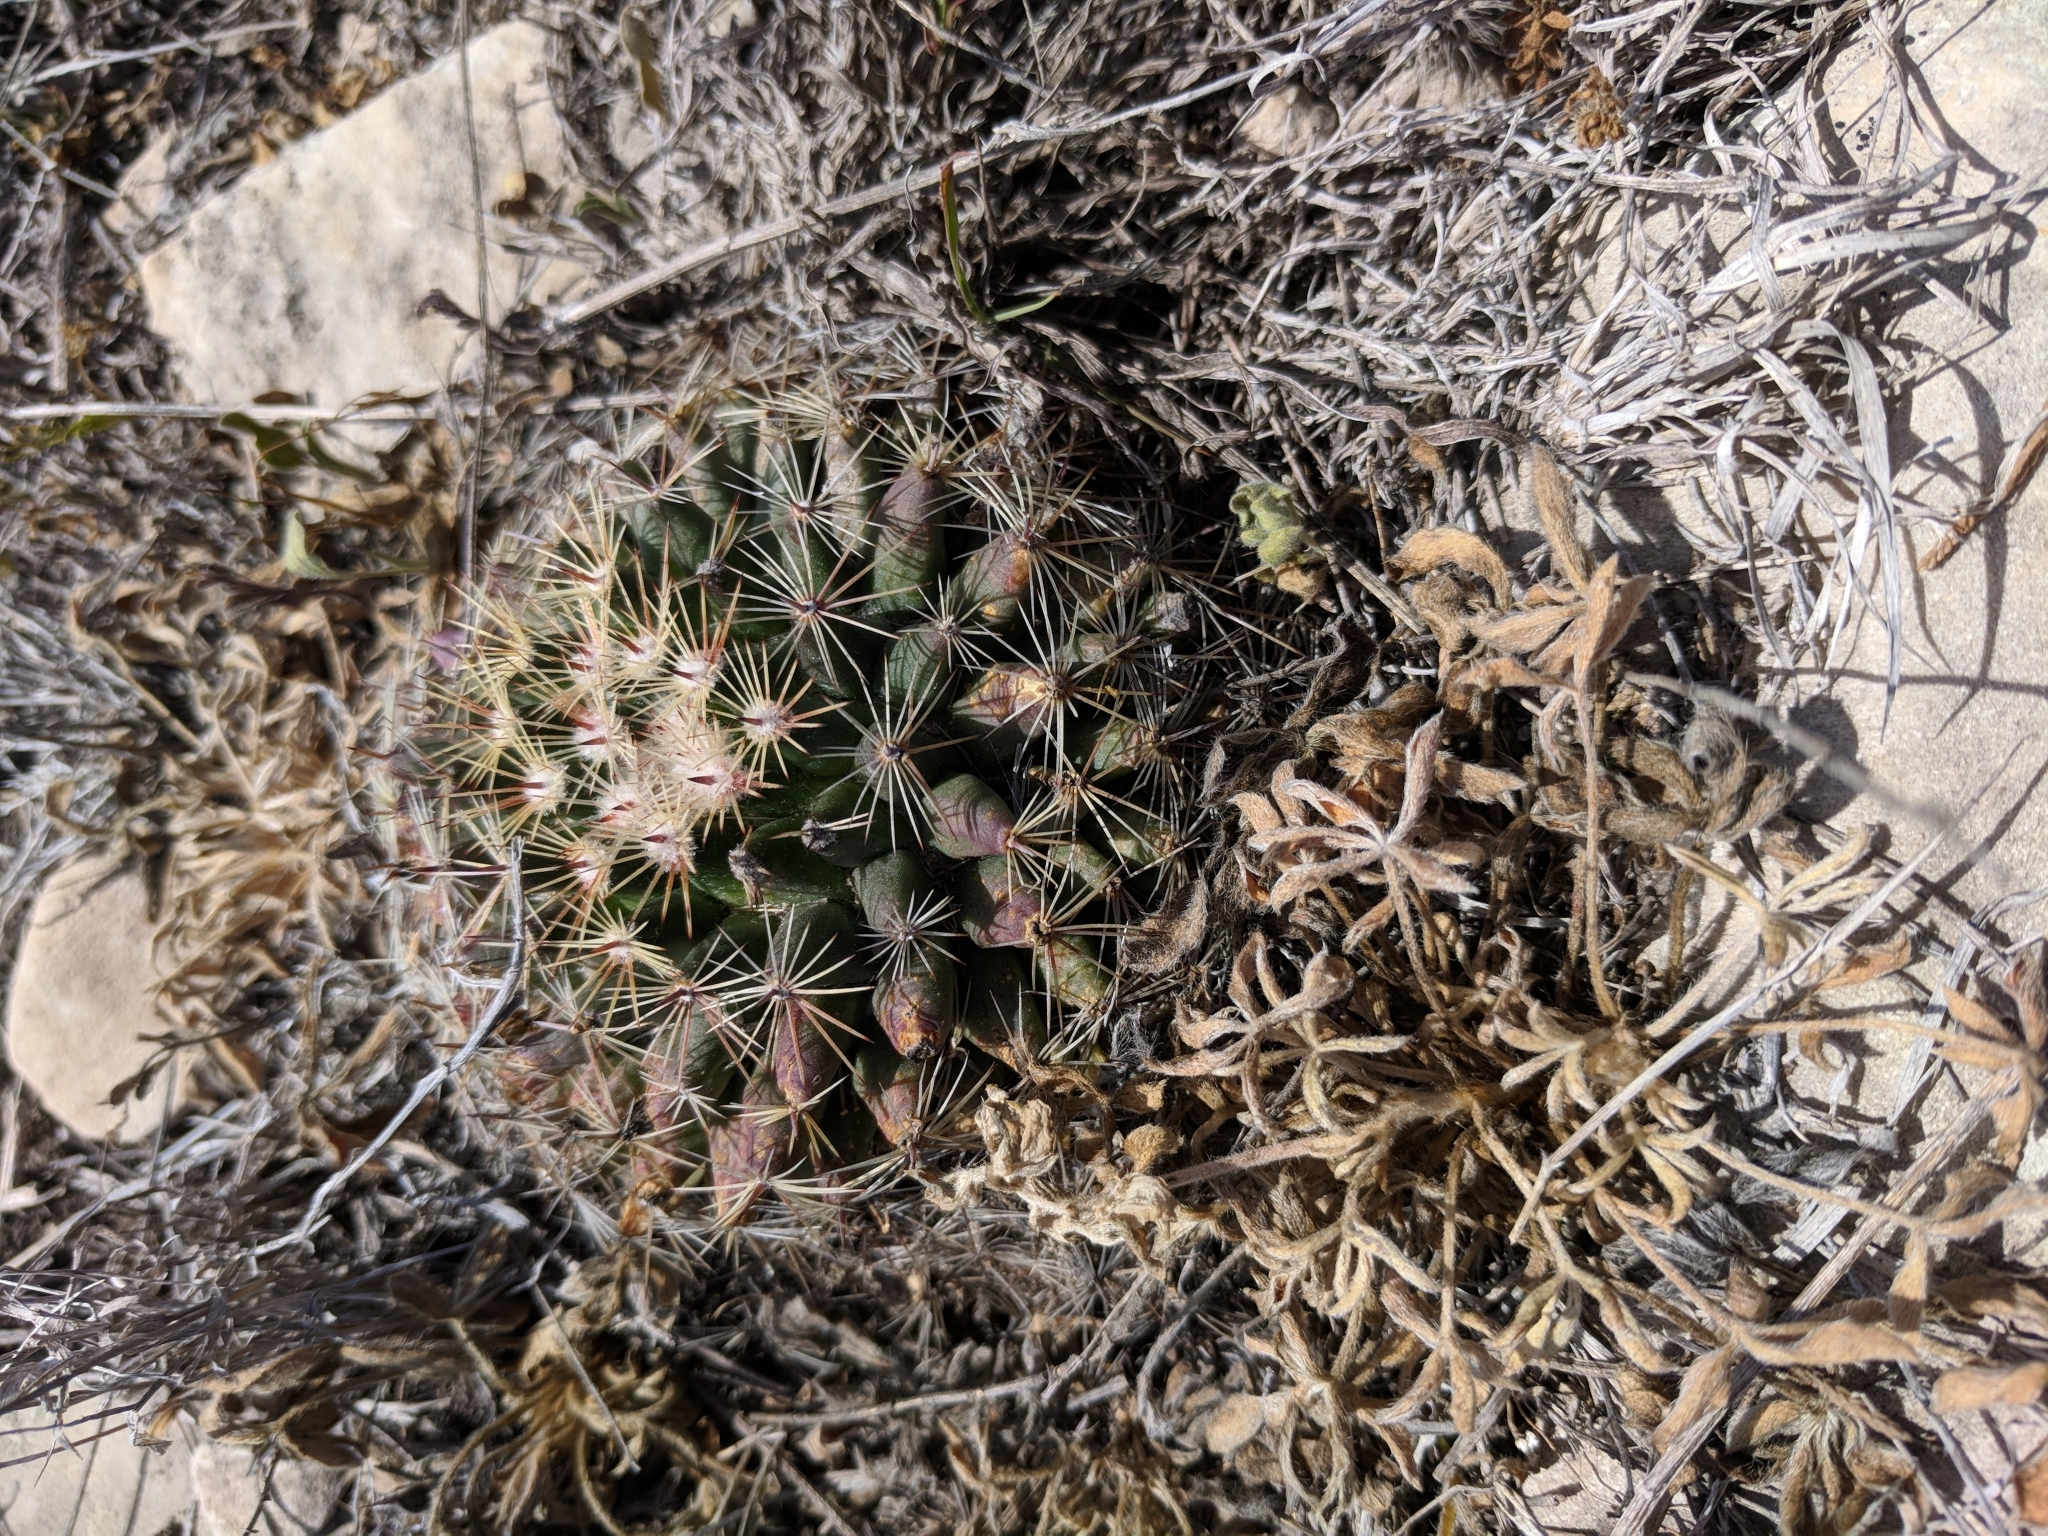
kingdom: Plantae
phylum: Tracheophyta
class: Magnoliopsida
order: Caryophyllales
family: Cactaceae
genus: Mammillaria
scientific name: Mammillaria heyderi
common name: Little nipple cactus
